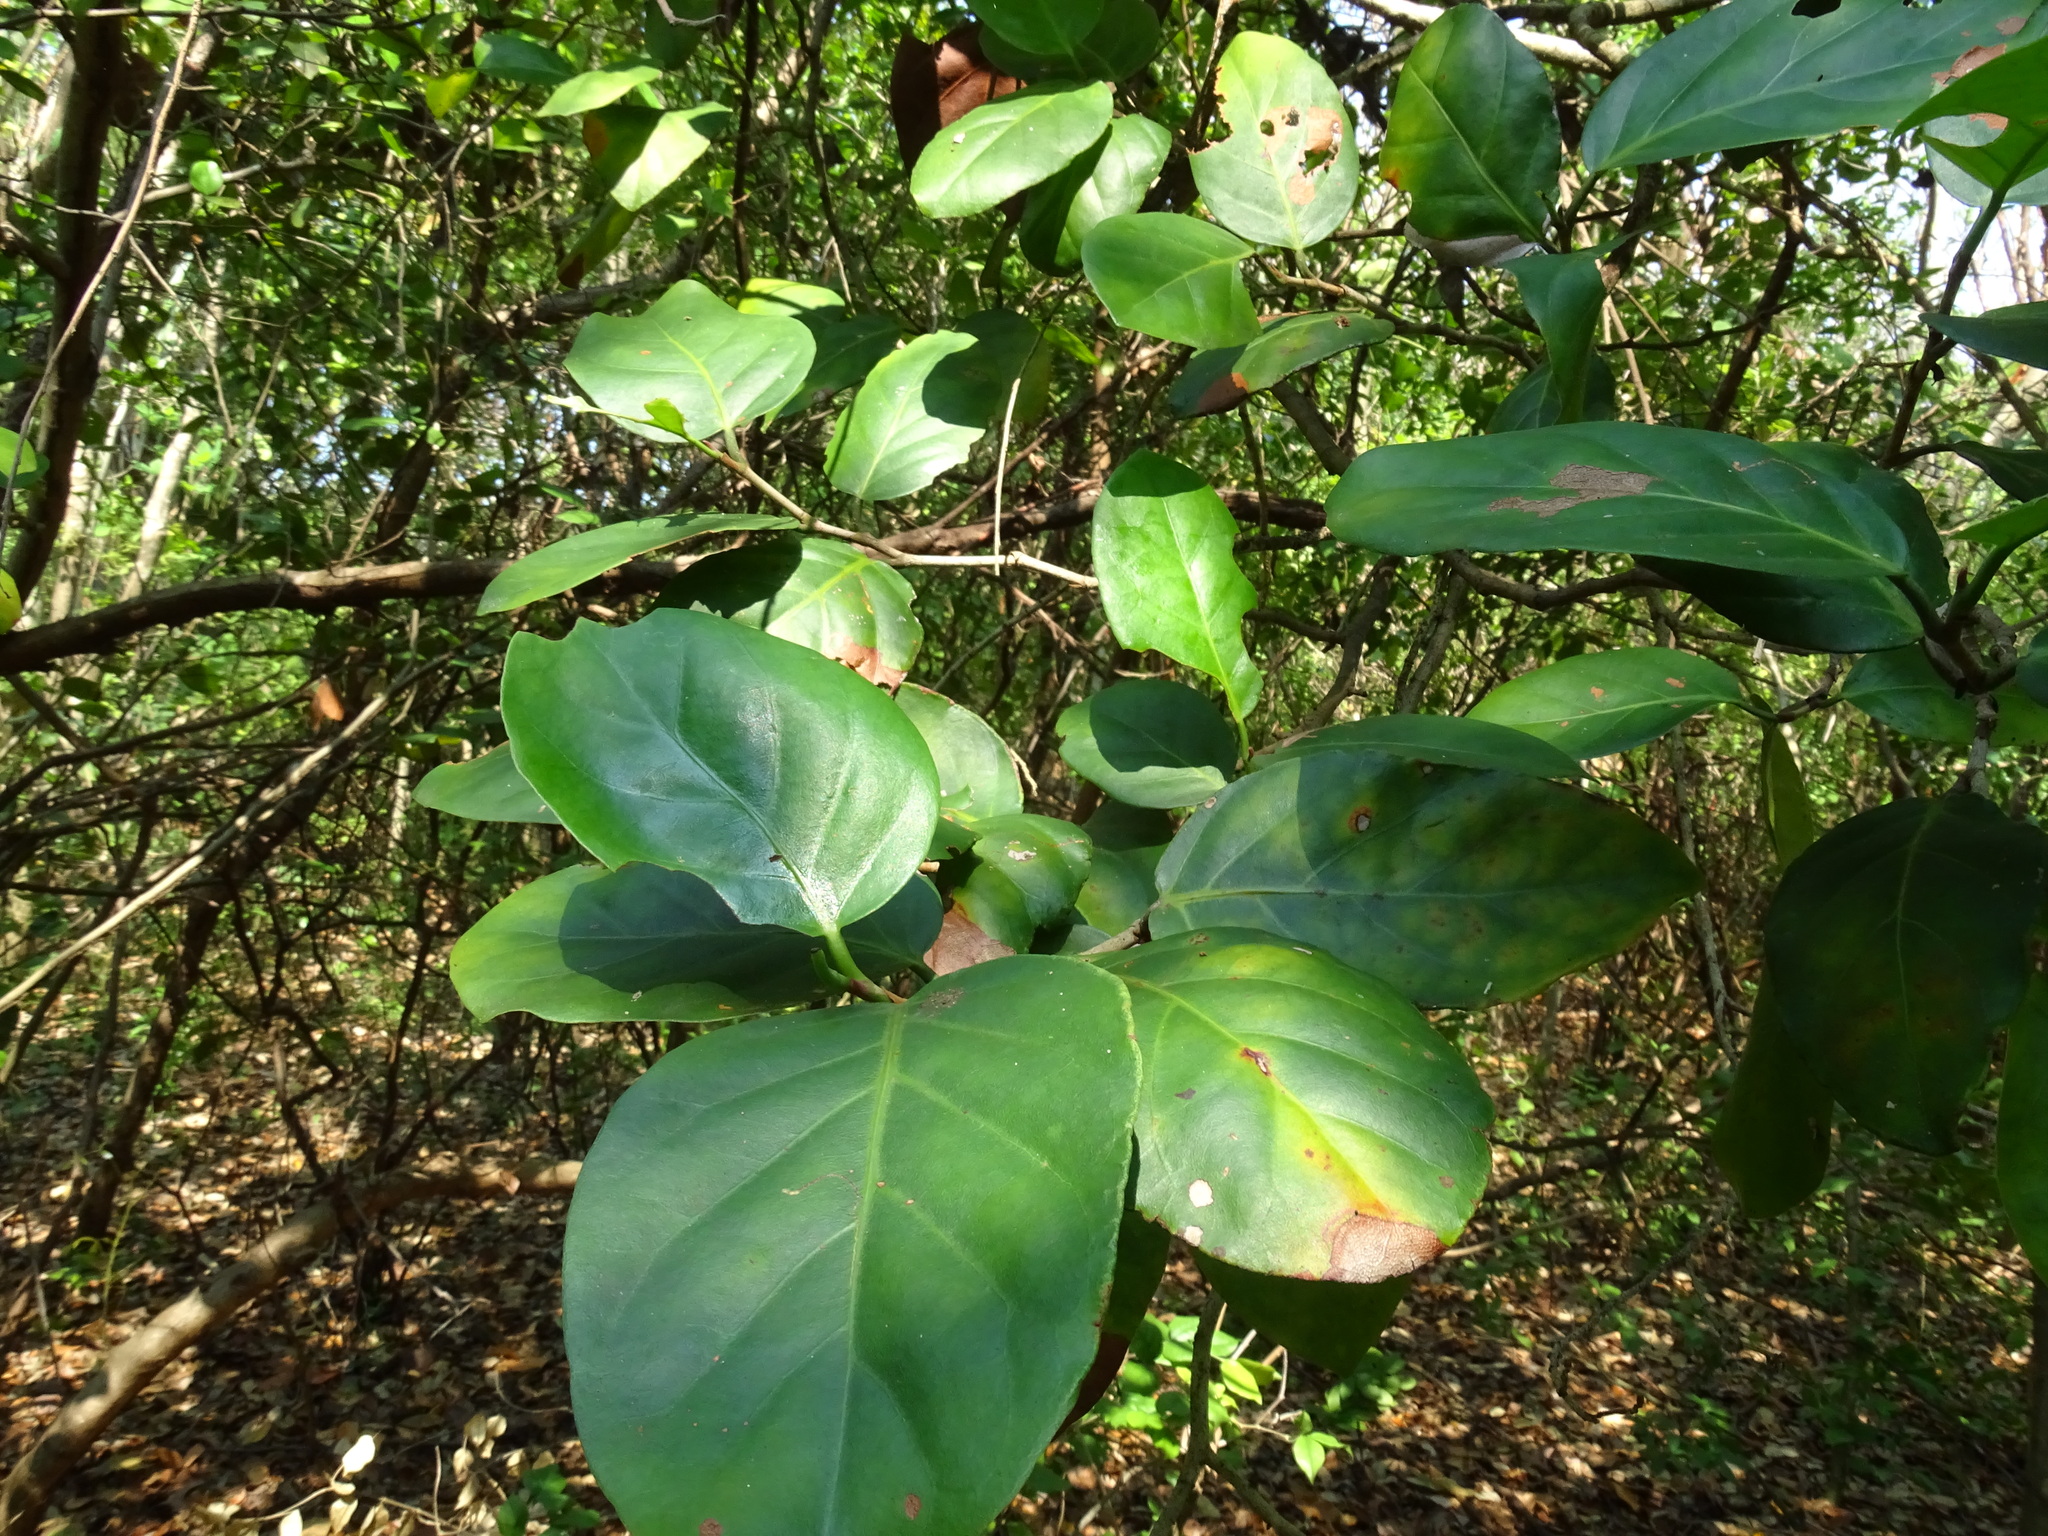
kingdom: Plantae
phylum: Tracheophyta
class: Magnoliopsida
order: Caryophyllales
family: Polygonaceae
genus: Coccoloba
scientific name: Coccoloba diversifolia
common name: Pigeon-plum
